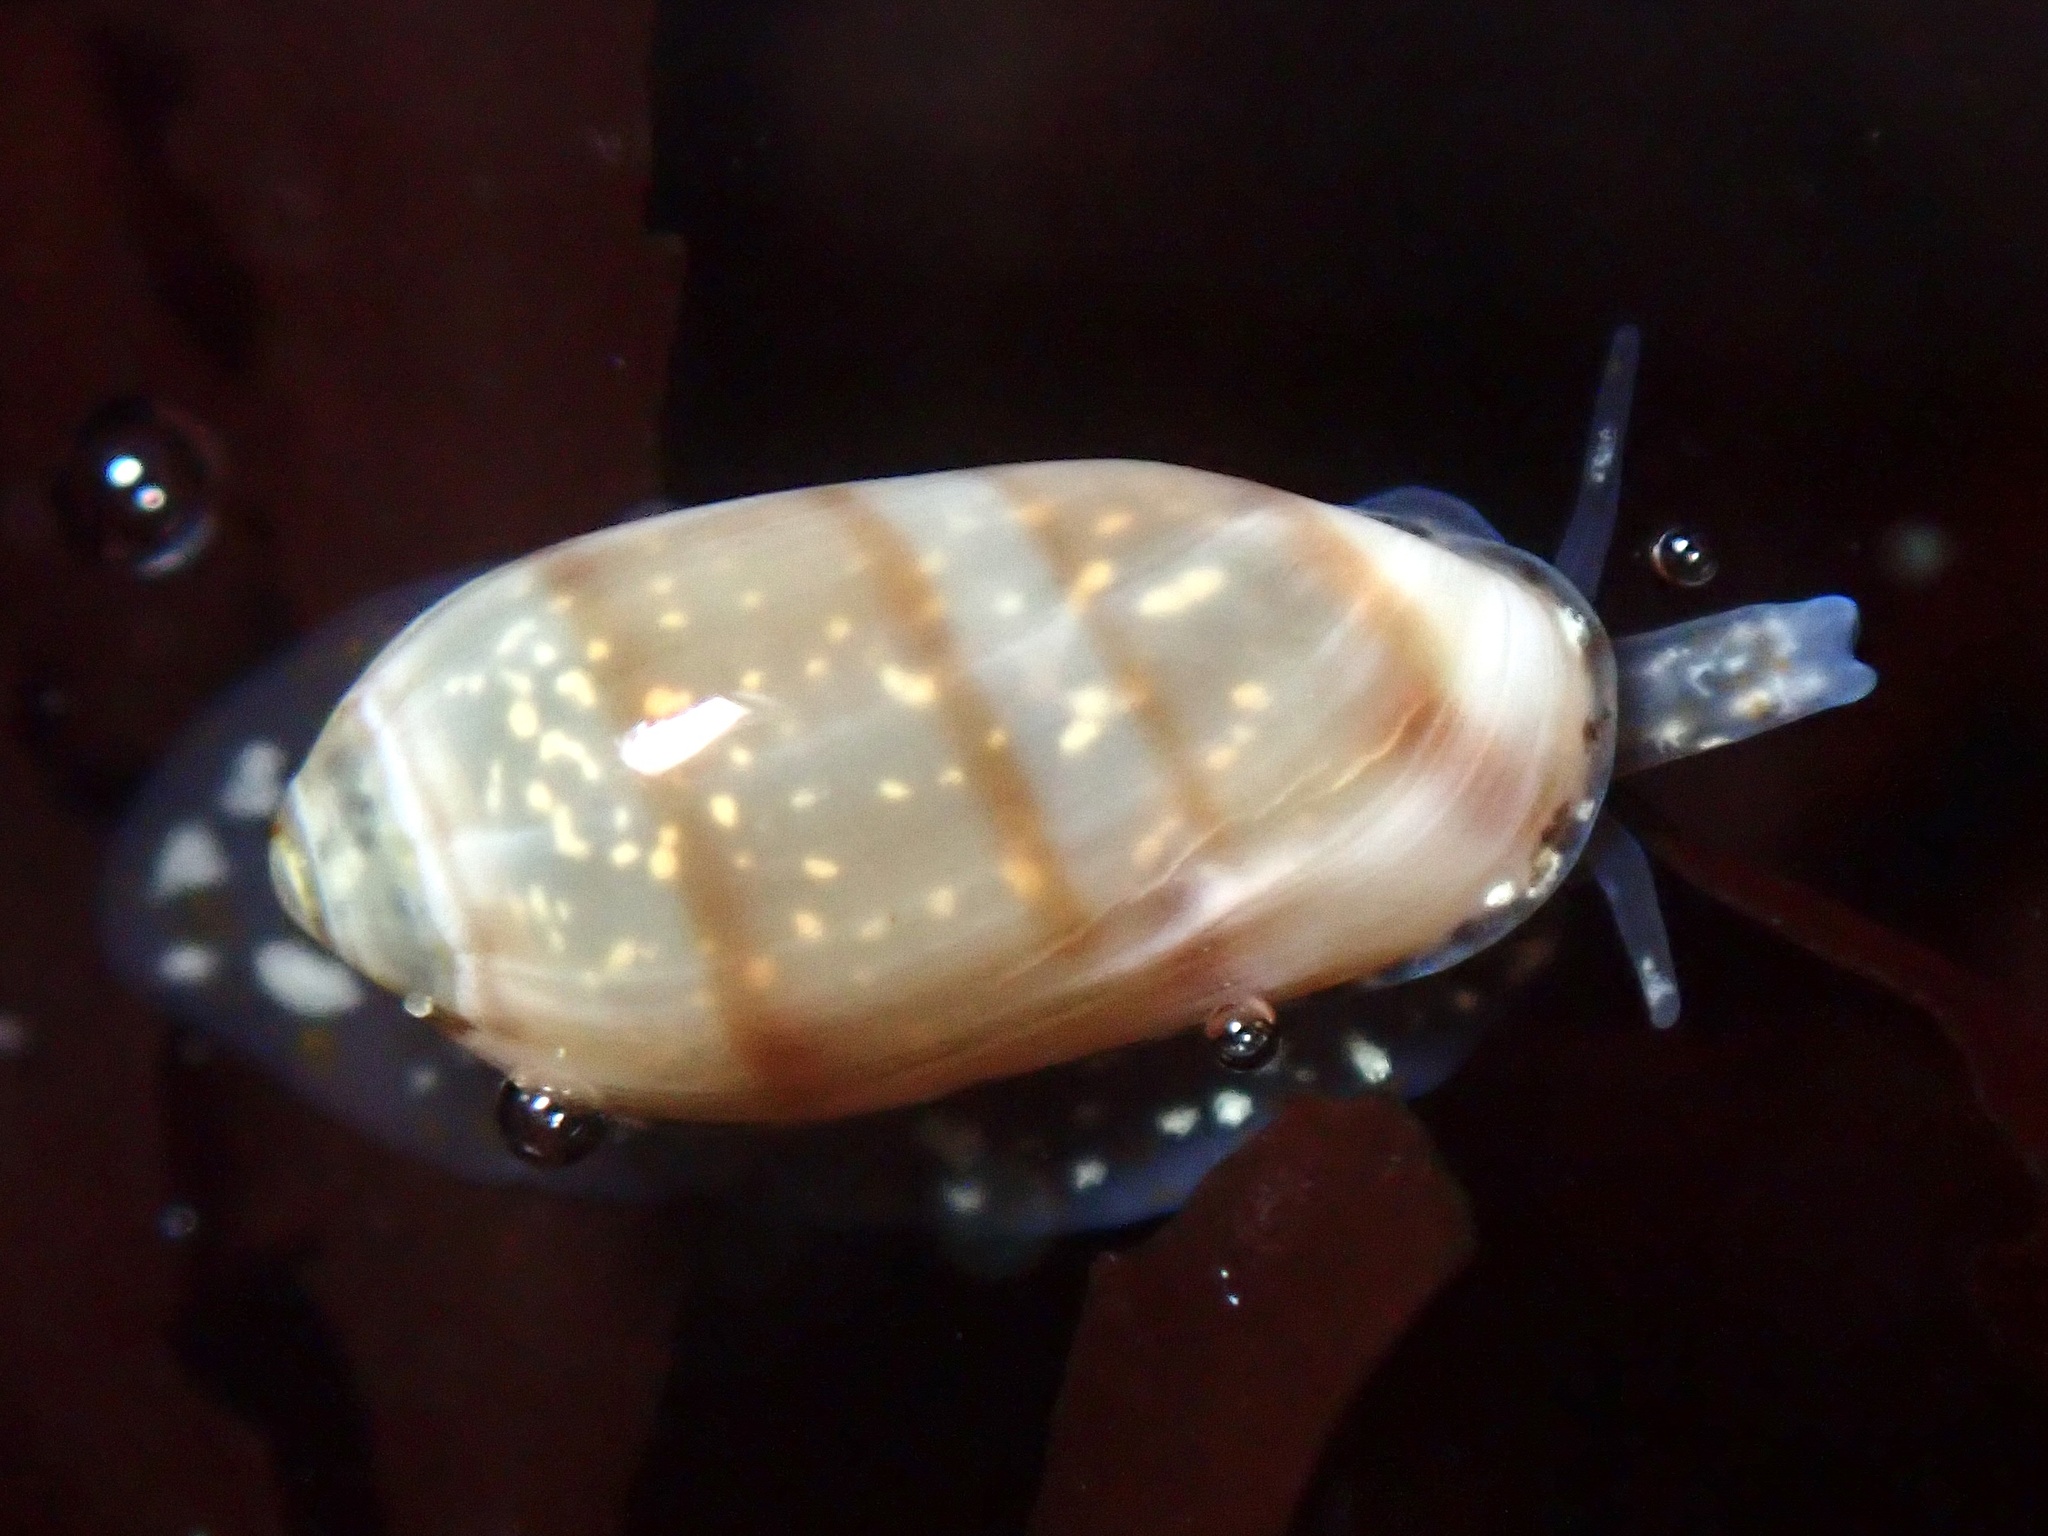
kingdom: Animalia
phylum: Mollusca
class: Gastropoda
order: Neogastropoda
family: Marginellidae
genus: Volvarina
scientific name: Volvarina taeniolata
